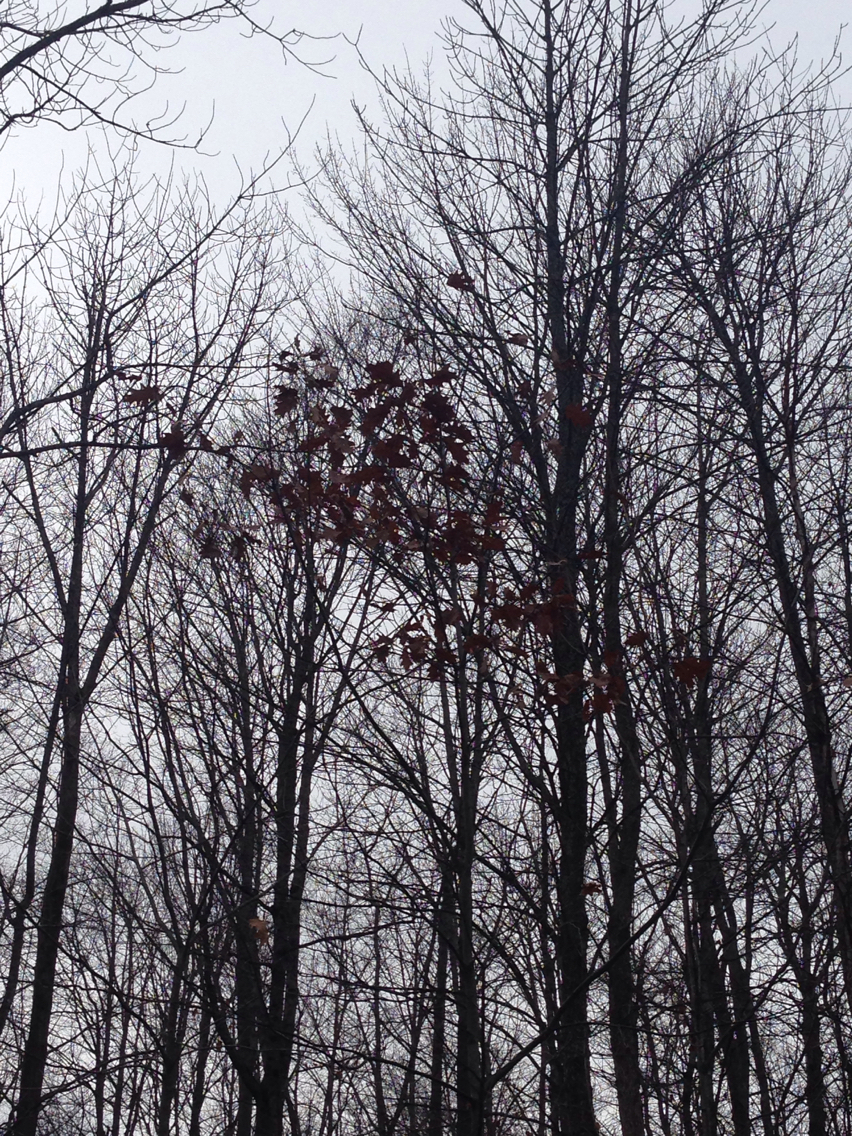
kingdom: Plantae
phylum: Tracheophyta
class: Magnoliopsida
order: Fagales
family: Fagaceae
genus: Quercus
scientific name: Quercus rubra
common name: Red oak
